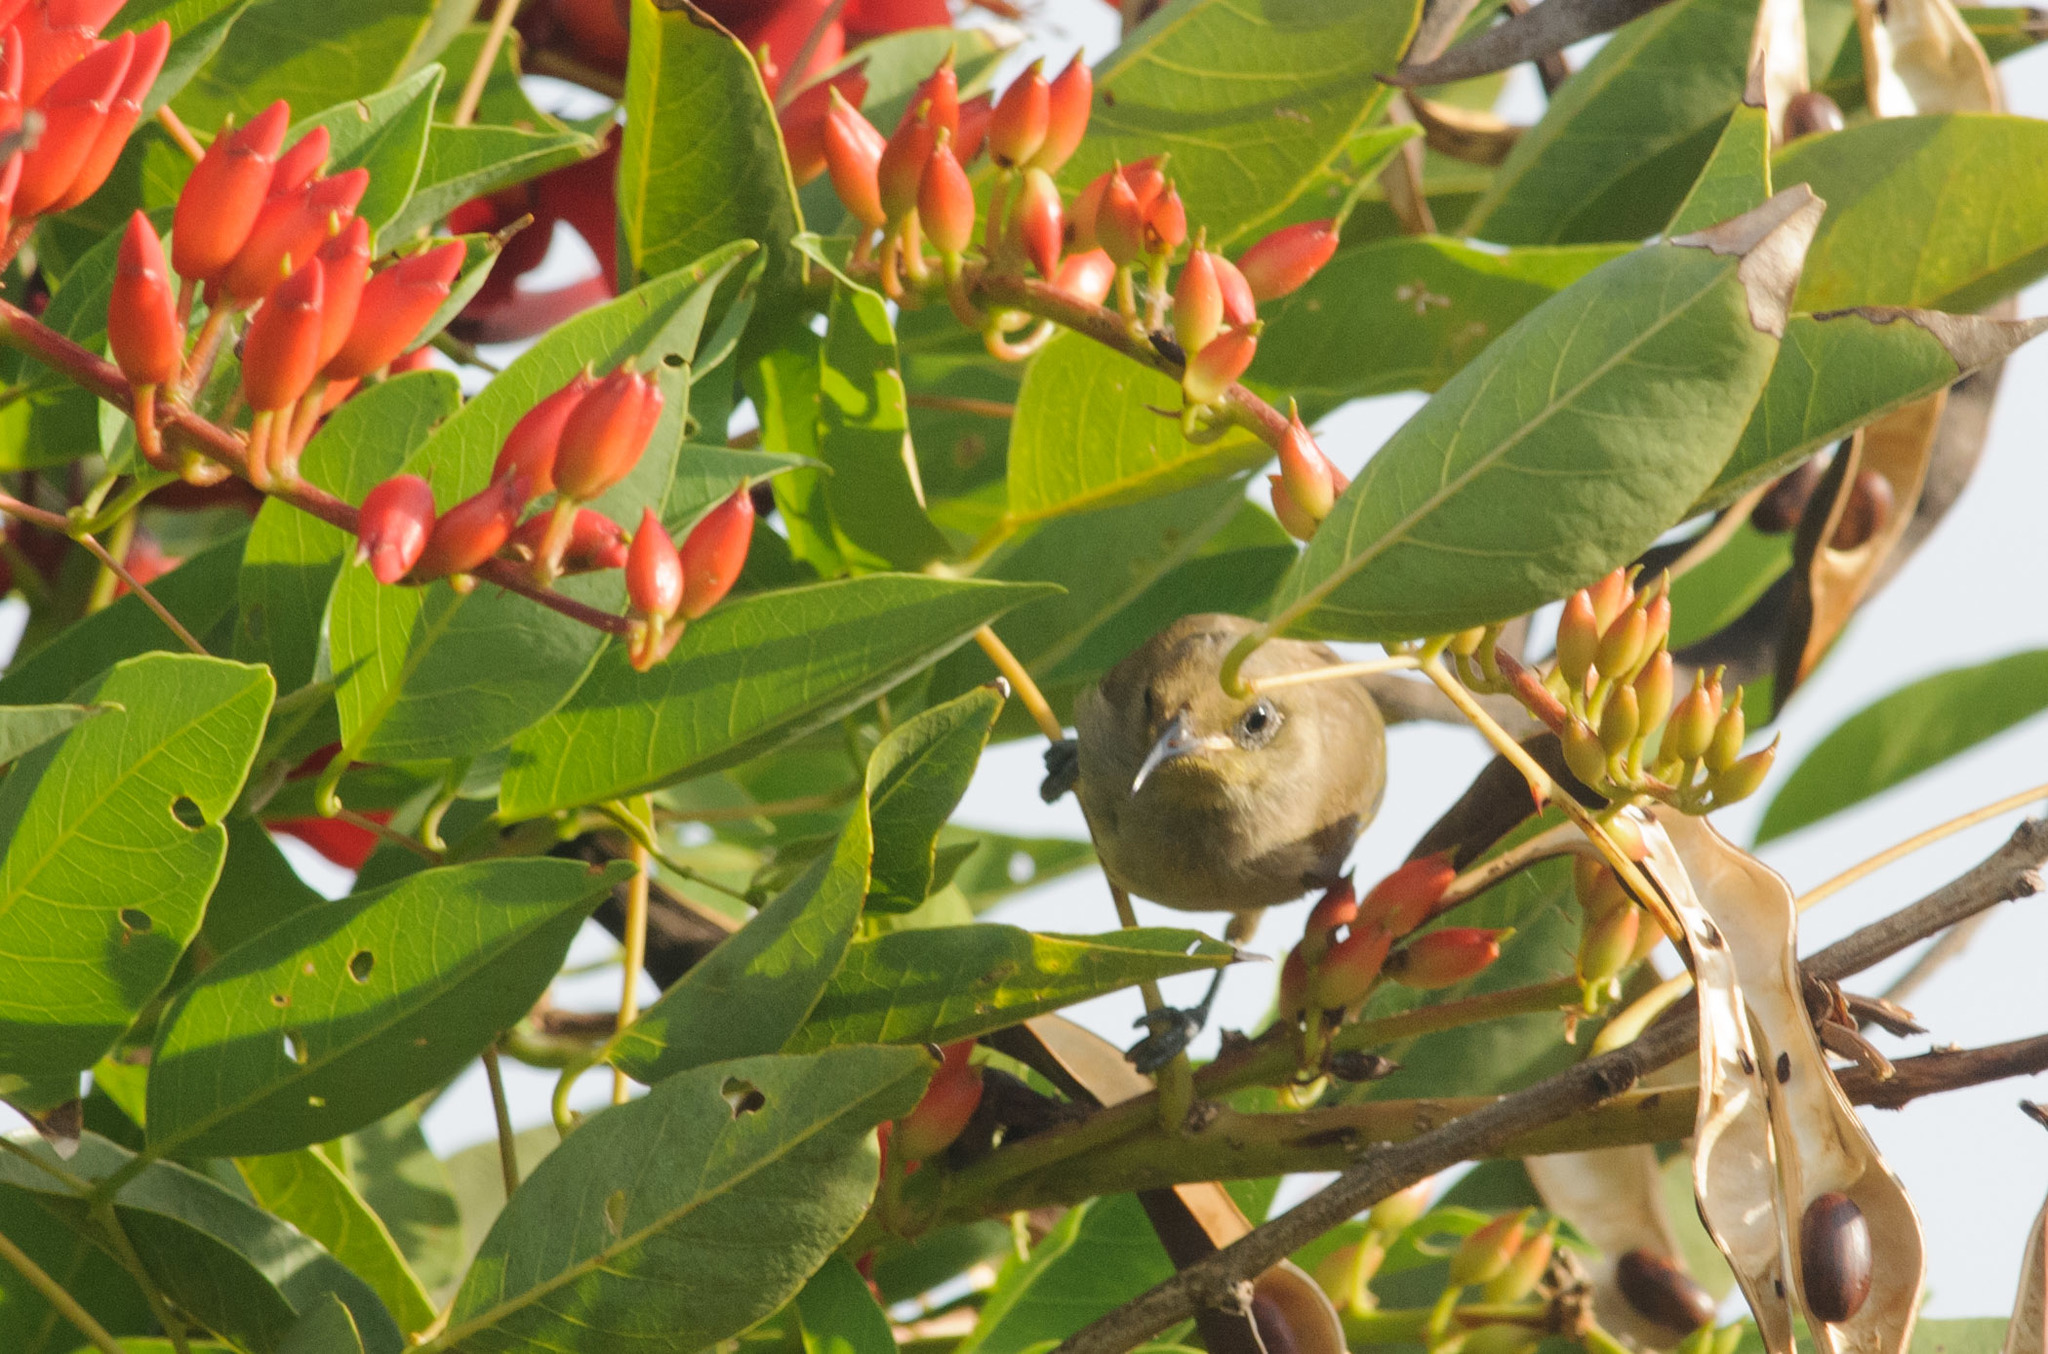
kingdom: Animalia
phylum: Chordata
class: Aves
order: Passeriformes
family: Meliphagidae
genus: Lichmera
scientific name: Lichmera indistincta
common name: Brown honeyeater
